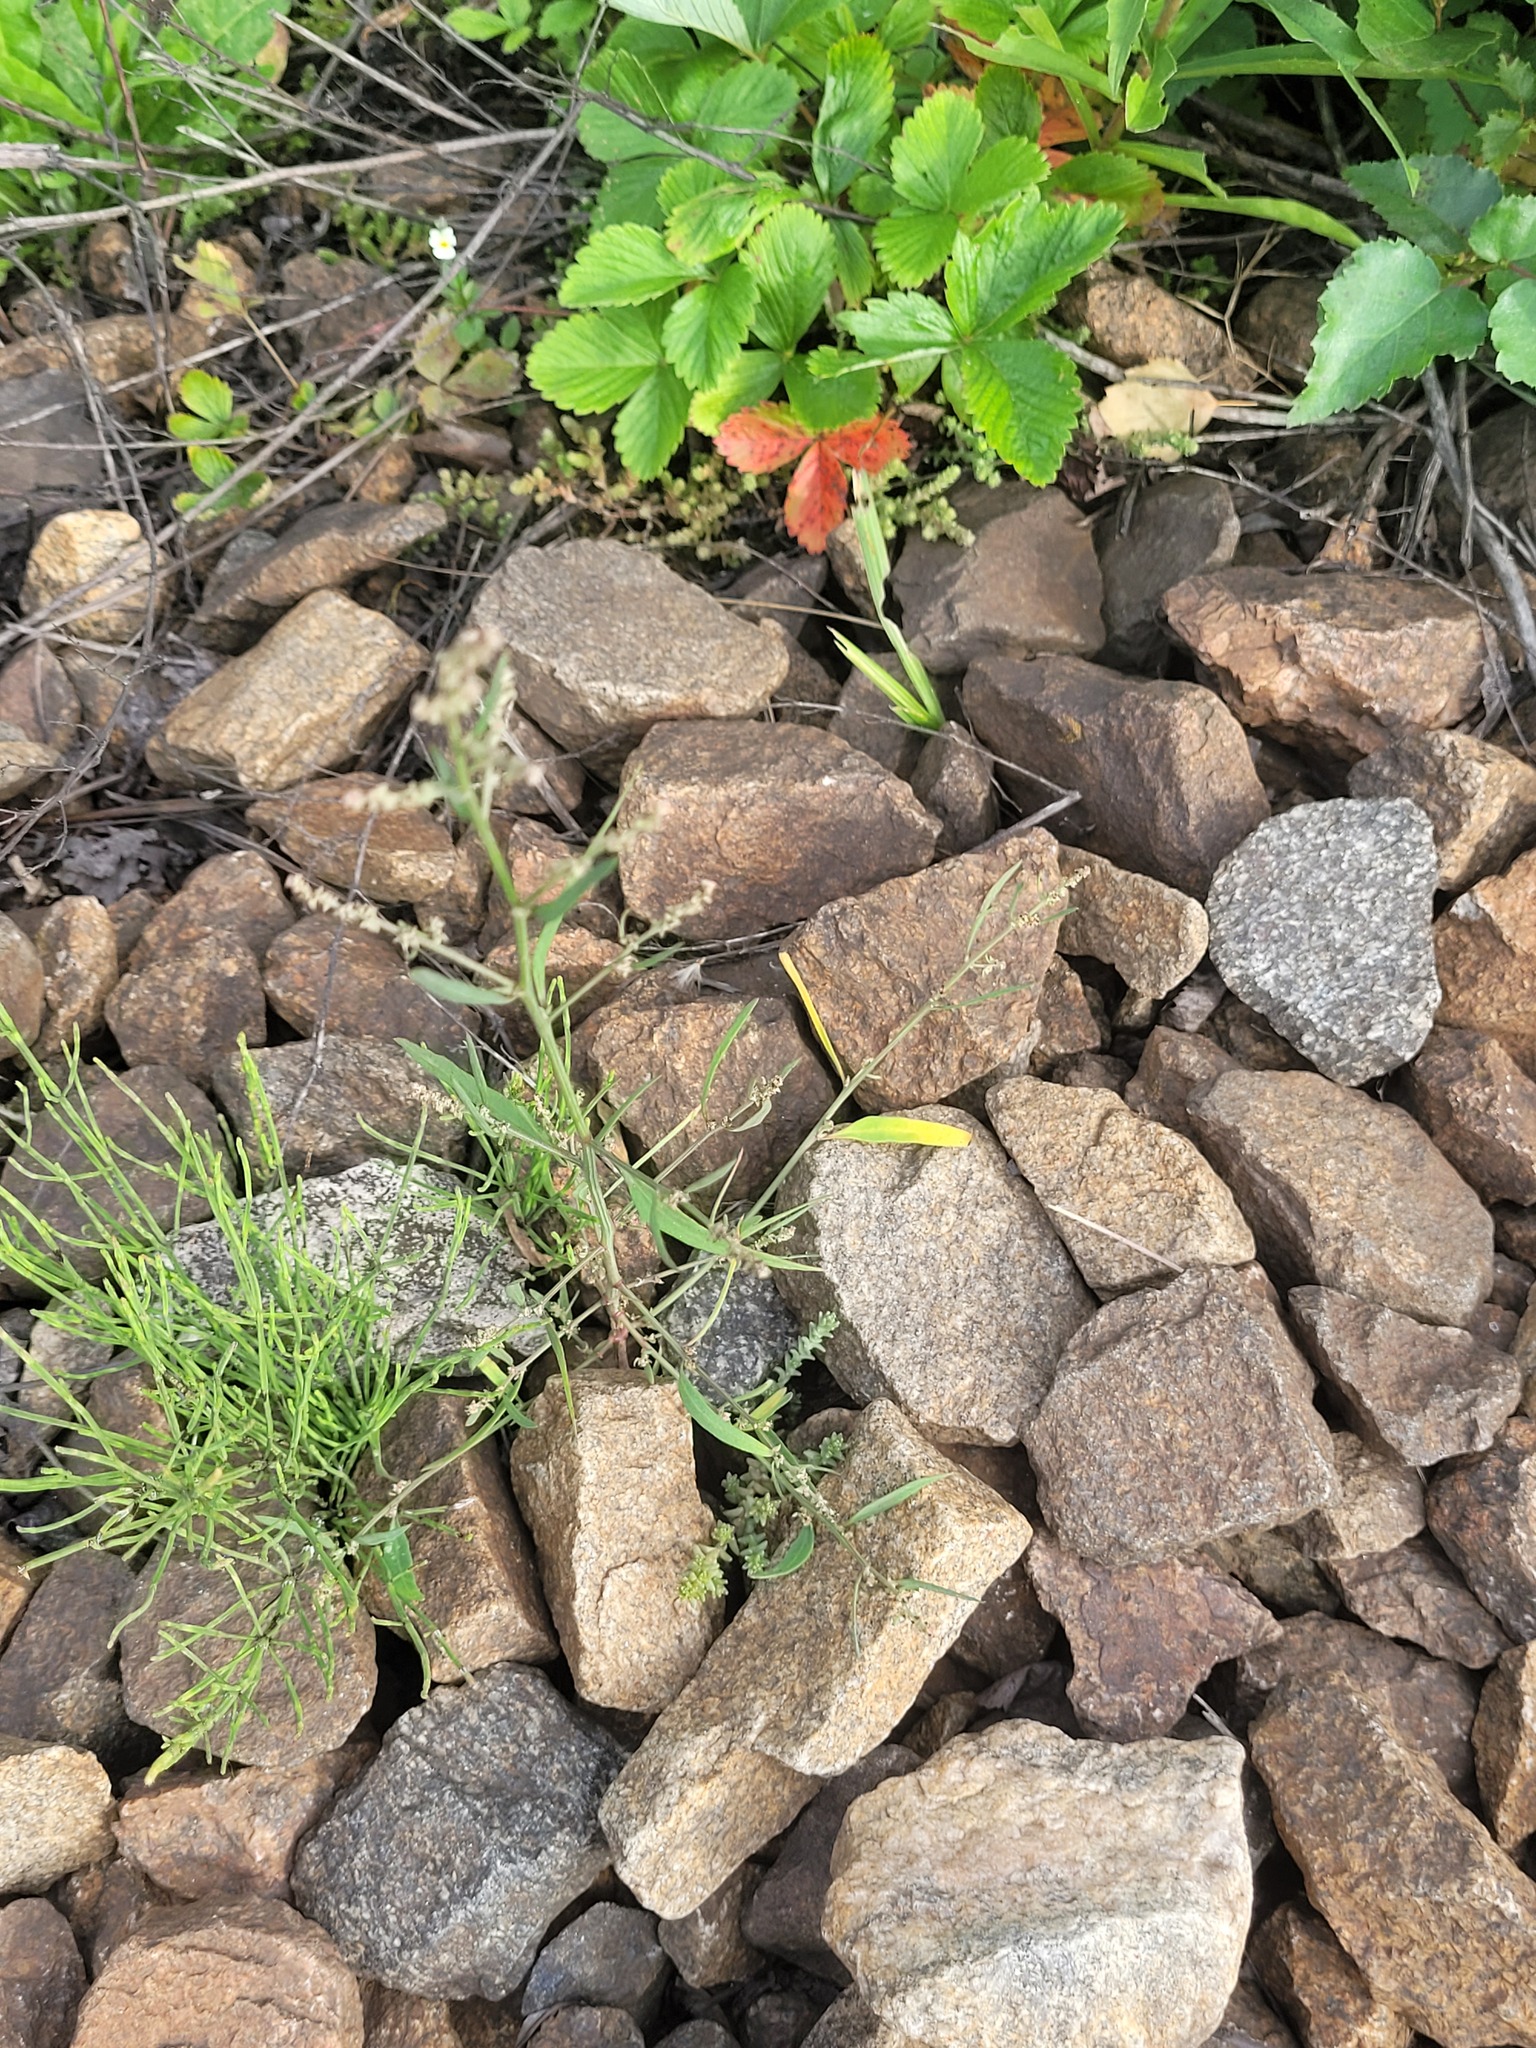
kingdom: Plantae
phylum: Tracheophyta
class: Magnoliopsida
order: Caryophyllales
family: Amaranthaceae
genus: Atriplex
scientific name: Atriplex patula
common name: Common orache
